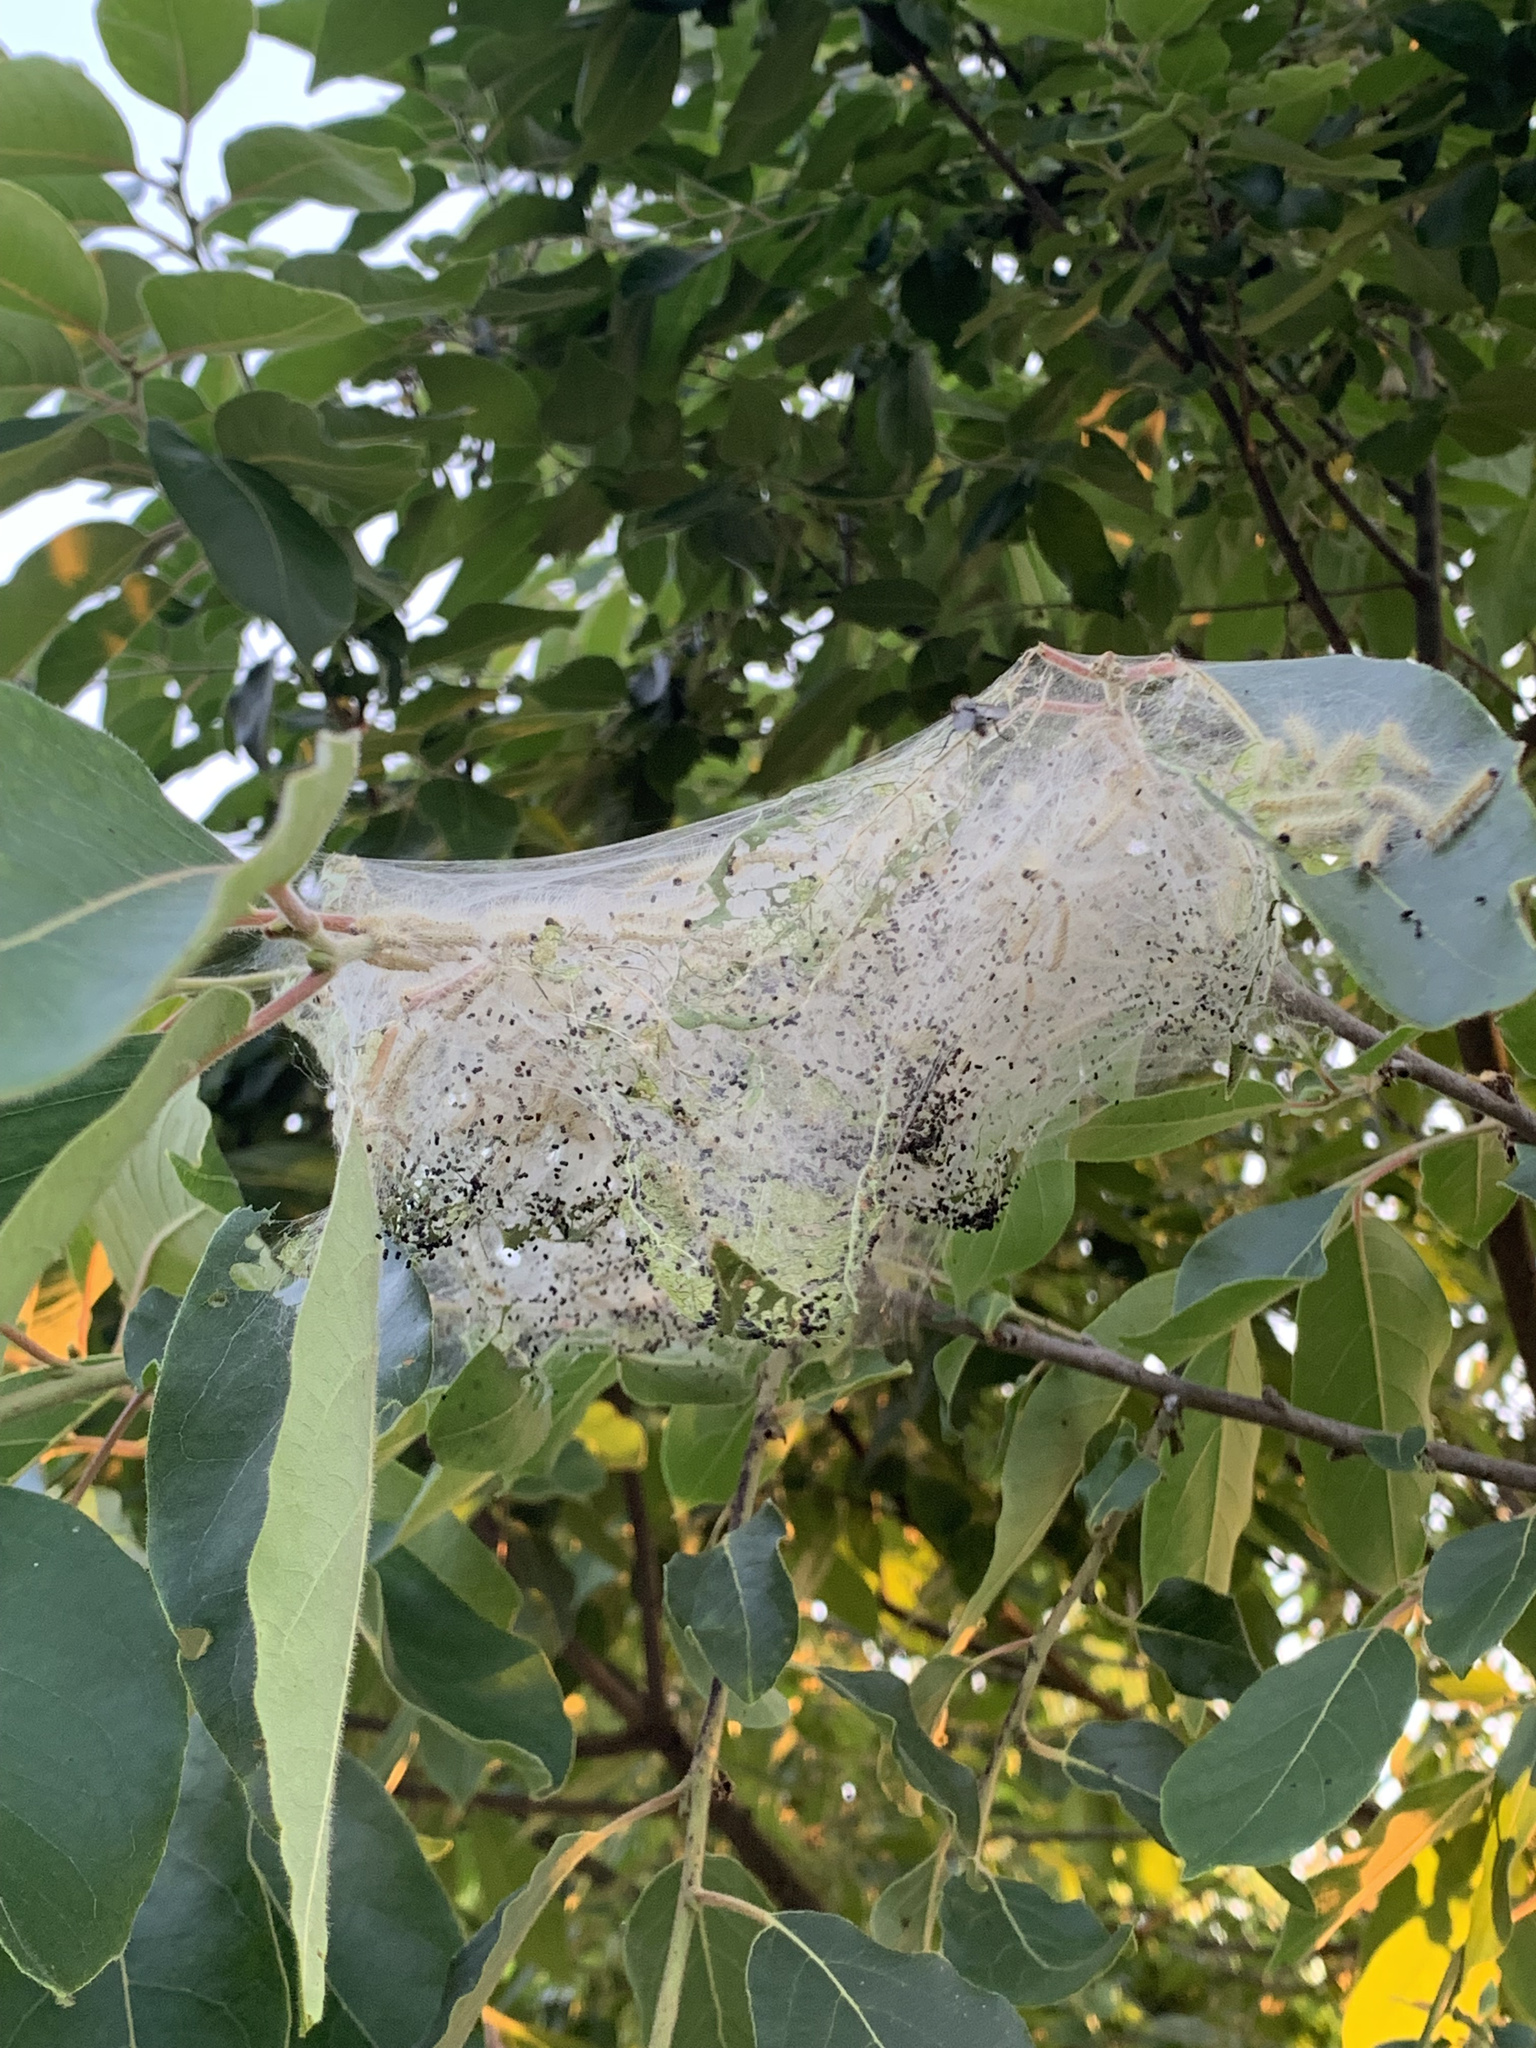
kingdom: Animalia
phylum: Arthropoda
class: Insecta
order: Lepidoptera
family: Erebidae
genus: Hyphantria
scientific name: Hyphantria cunea
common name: American white moth
